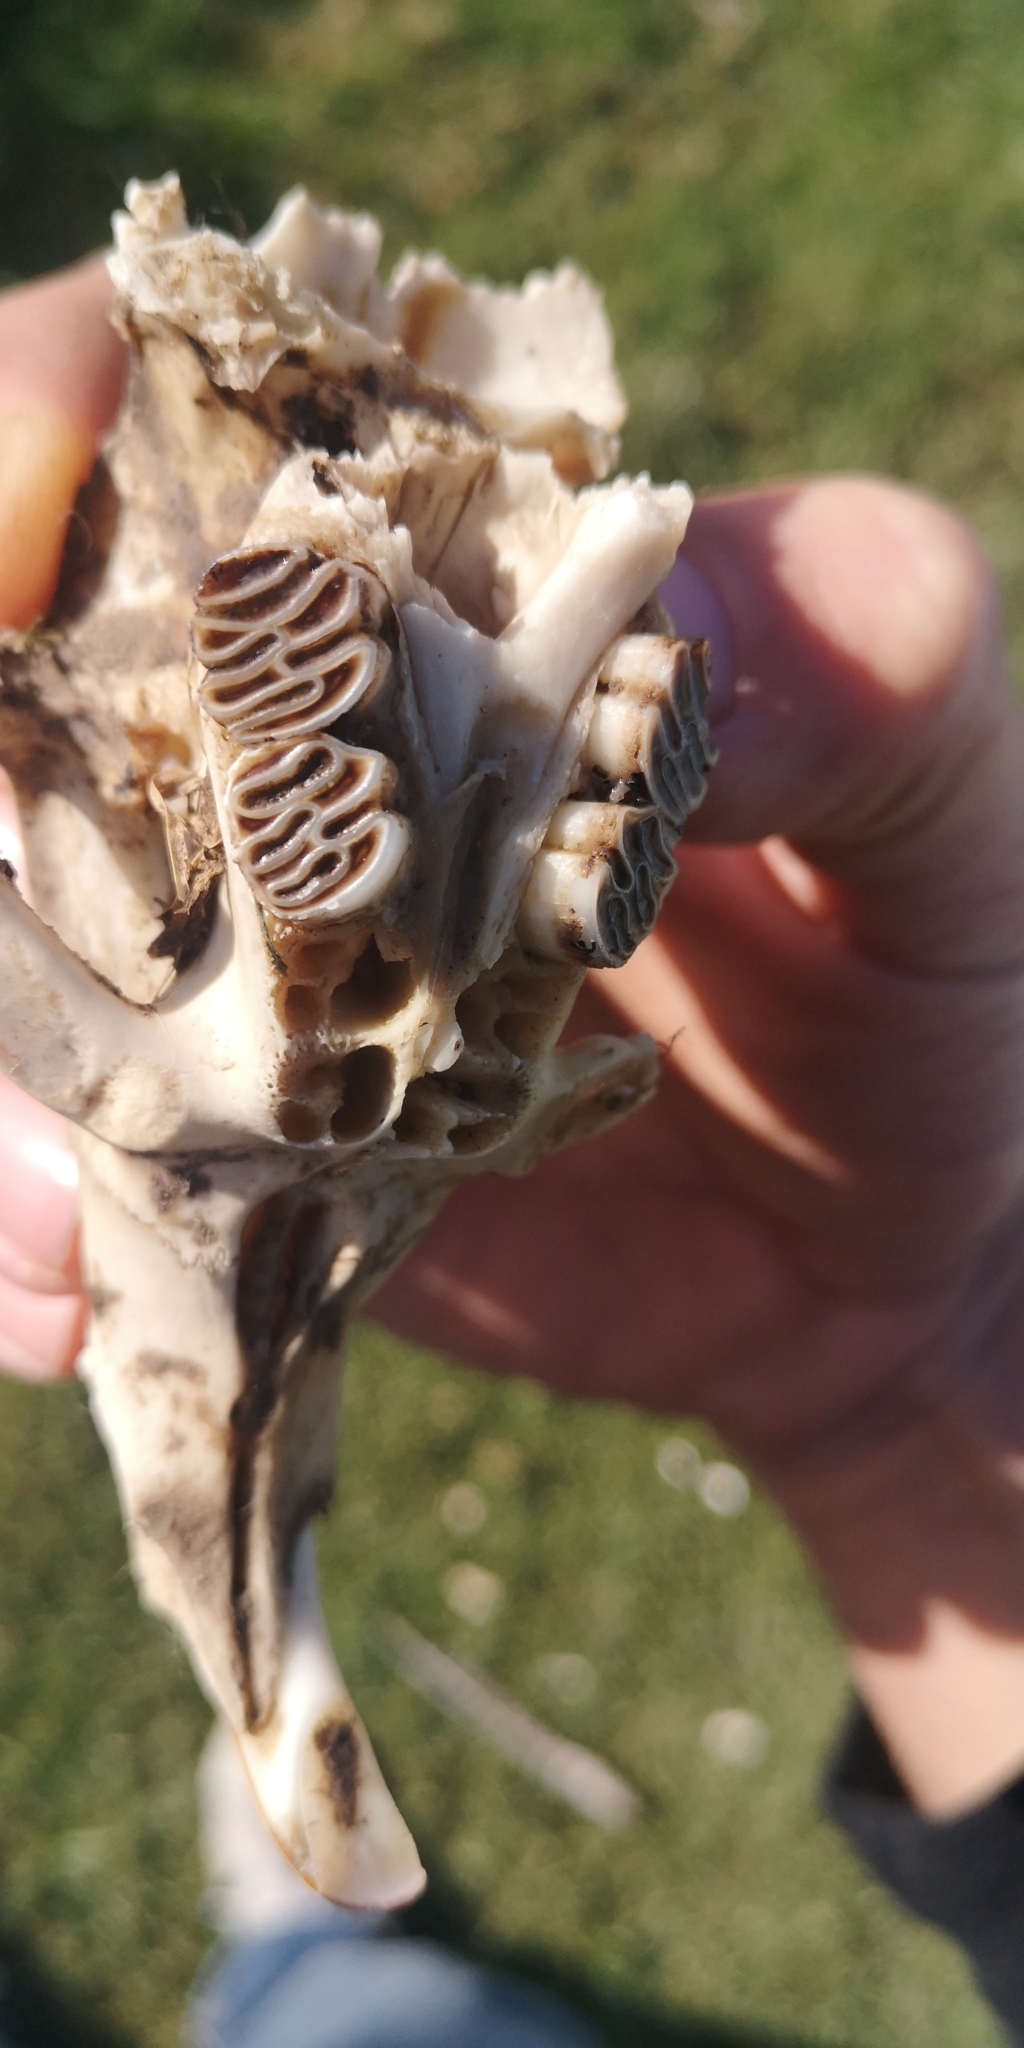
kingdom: Animalia
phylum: Chordata
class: Mammalia
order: Rodentia
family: Myocastoridae
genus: Myocastor
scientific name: Myocastor coypus
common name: Coypu
